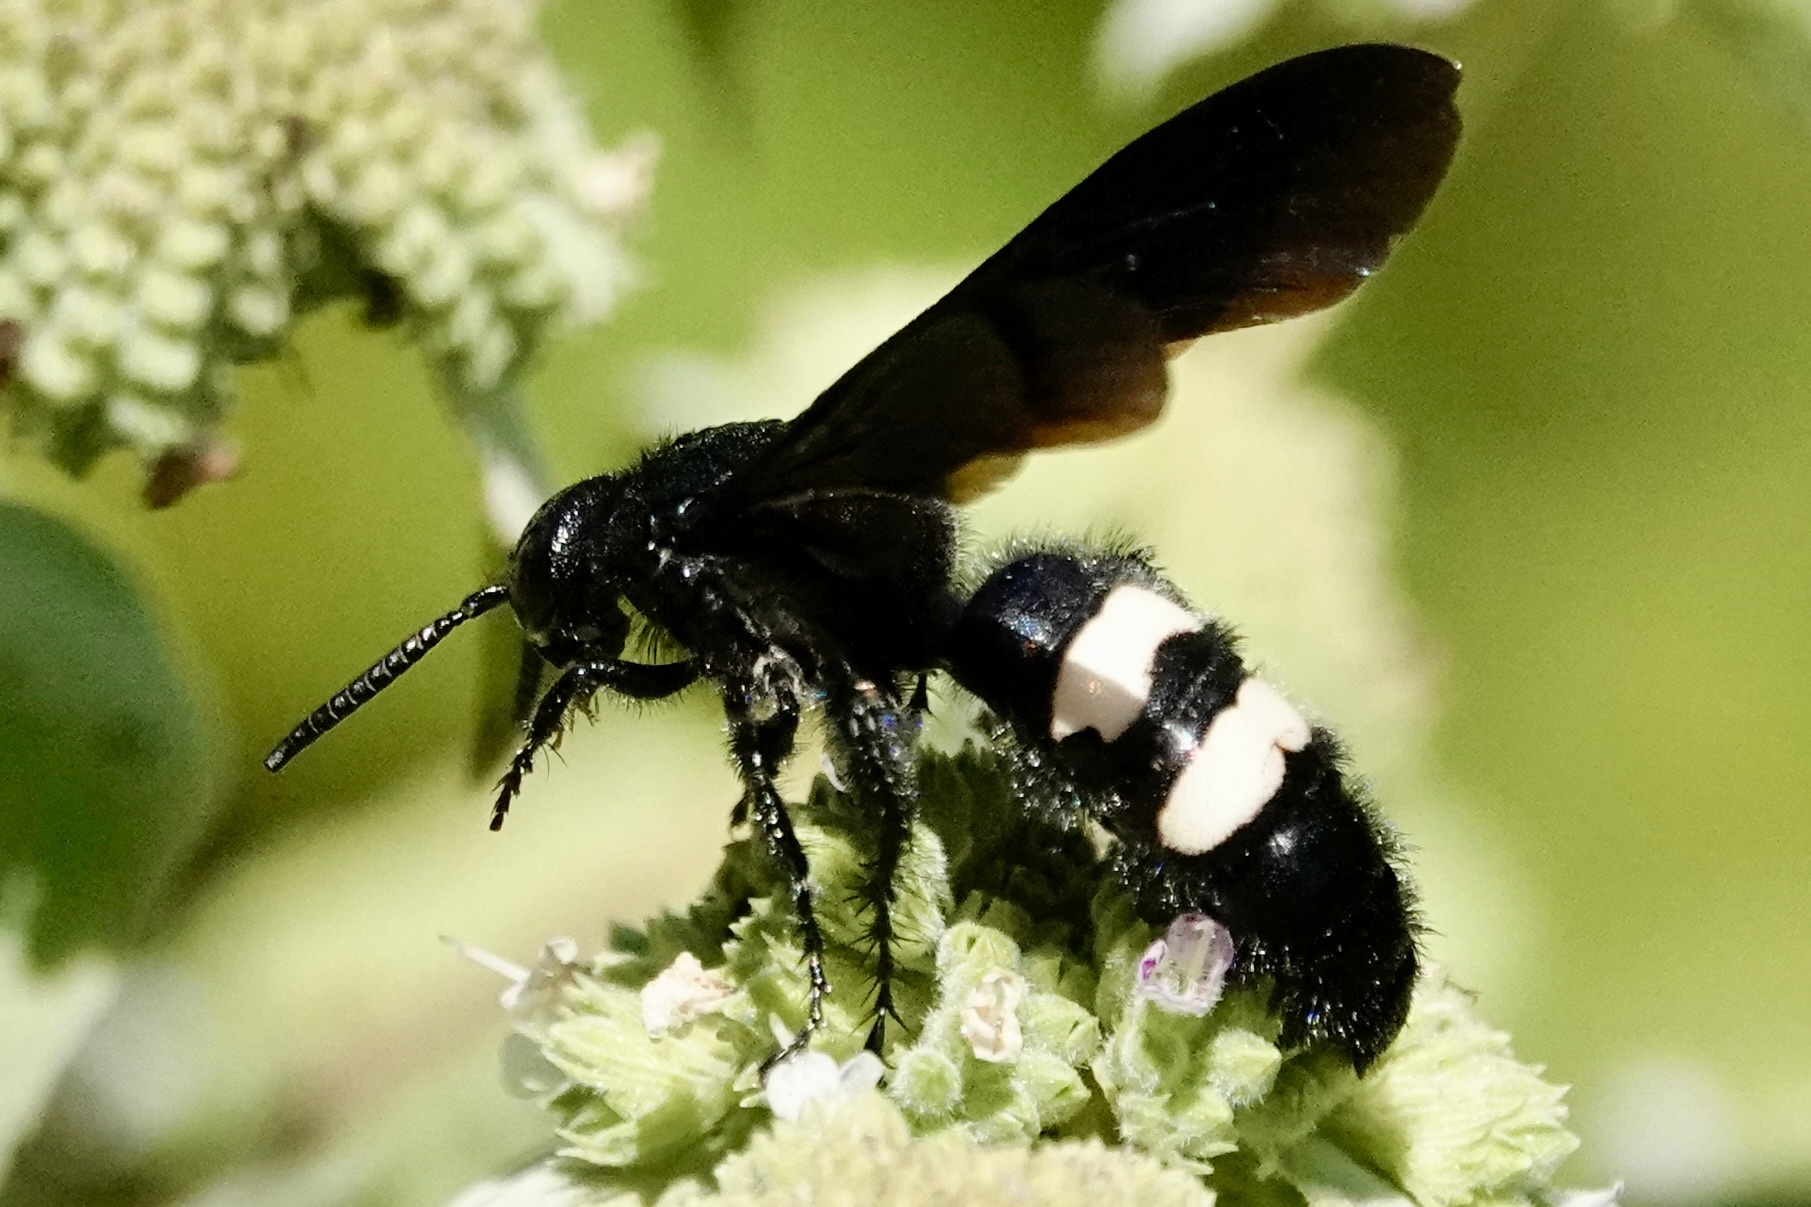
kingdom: Animalia
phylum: Arthropoda
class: Insecta
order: Hymenoptera
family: Scoliidae
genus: Scolia
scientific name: Scolia bicincta
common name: Double-banded scoliid wasp
